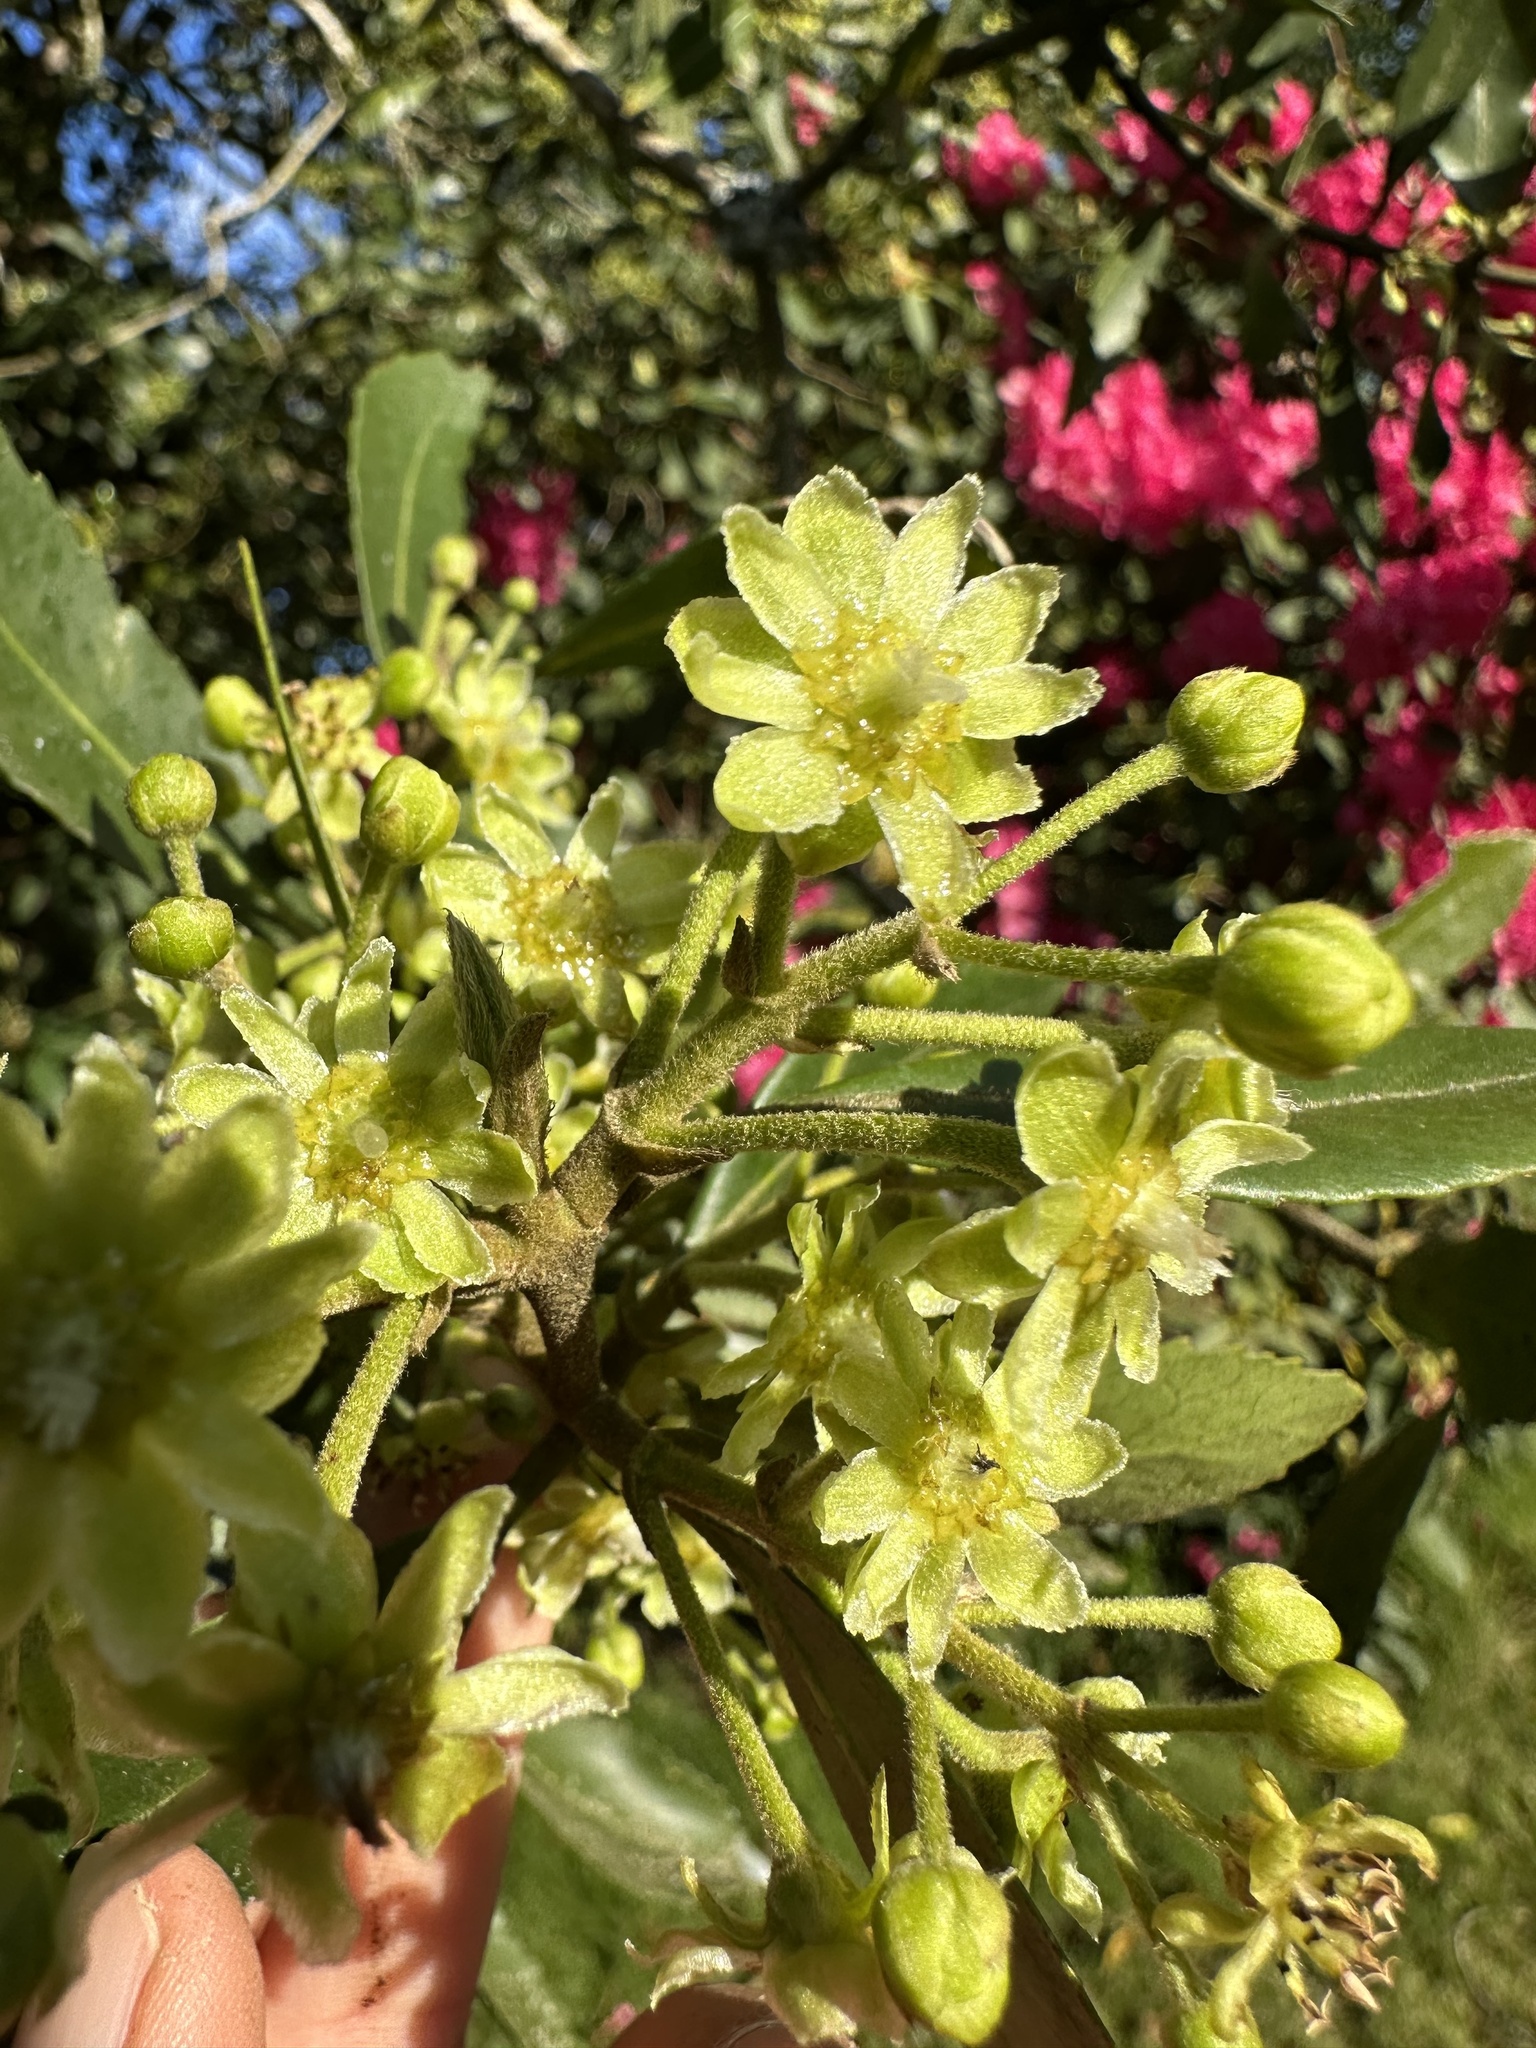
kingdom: Plantae
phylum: Tracheophyta
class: Magnoliopsida
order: Laurales
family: Atherospermataceae
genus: Laurelia
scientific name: Laurelia sempervirens
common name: Chilean laurel
